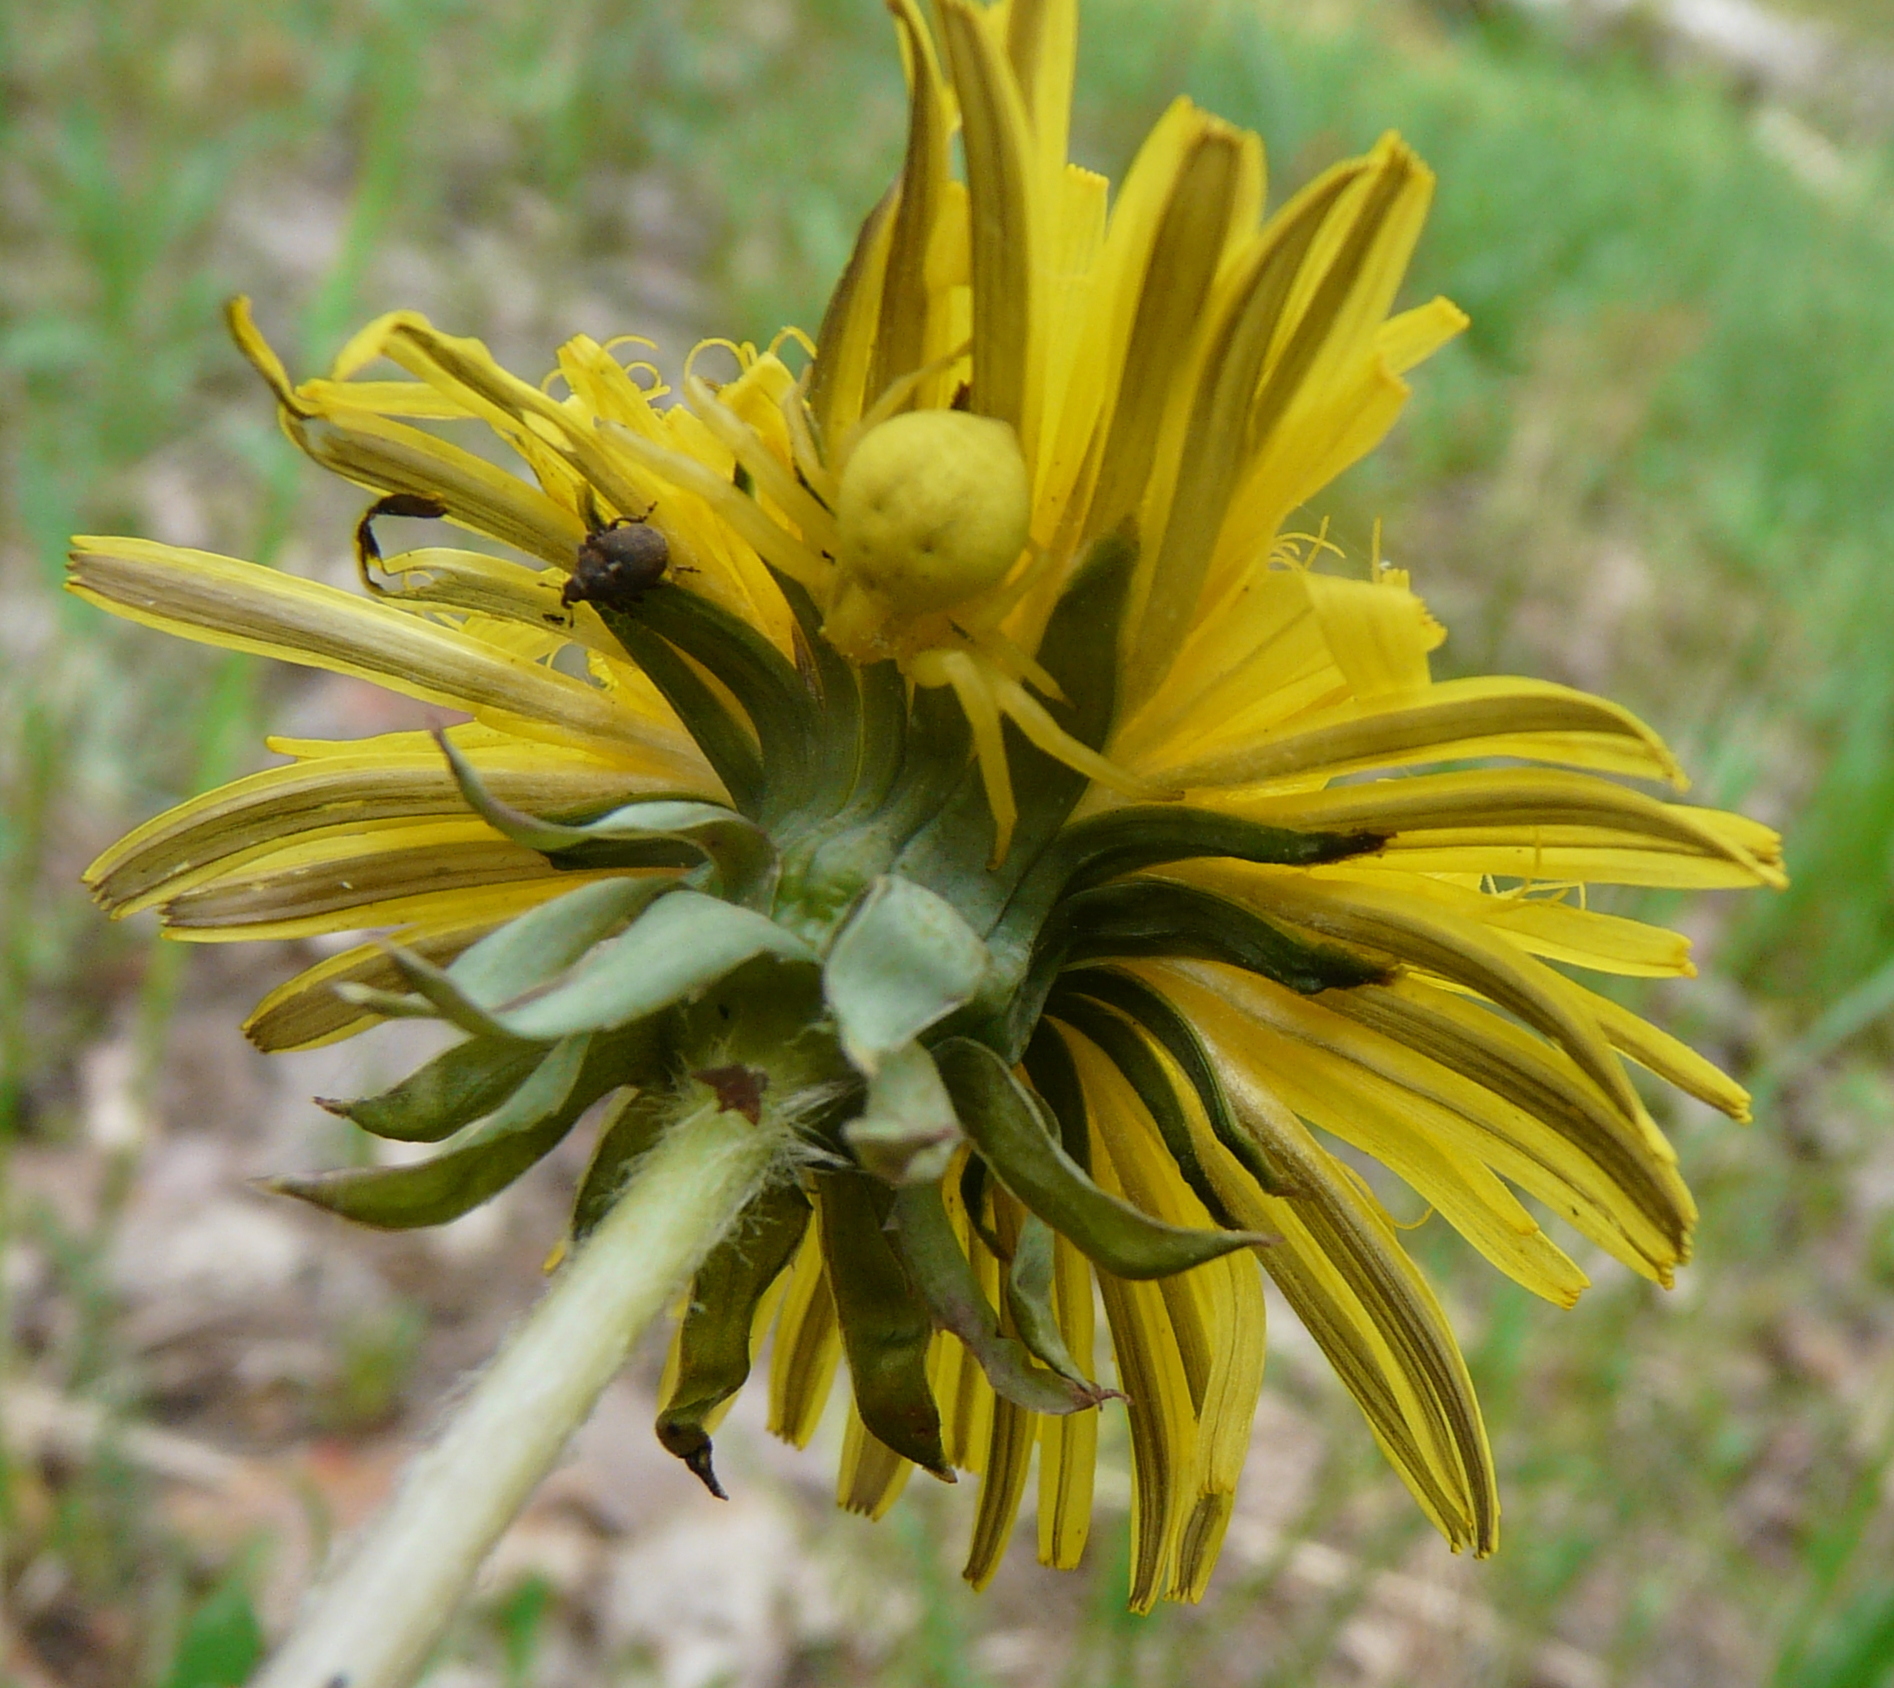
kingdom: Animalia
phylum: Arthropoda
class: Arachnida
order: Araneae
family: Thomisidae
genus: Misumena
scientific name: Misumena vatia
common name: Goldenrod crab spider
